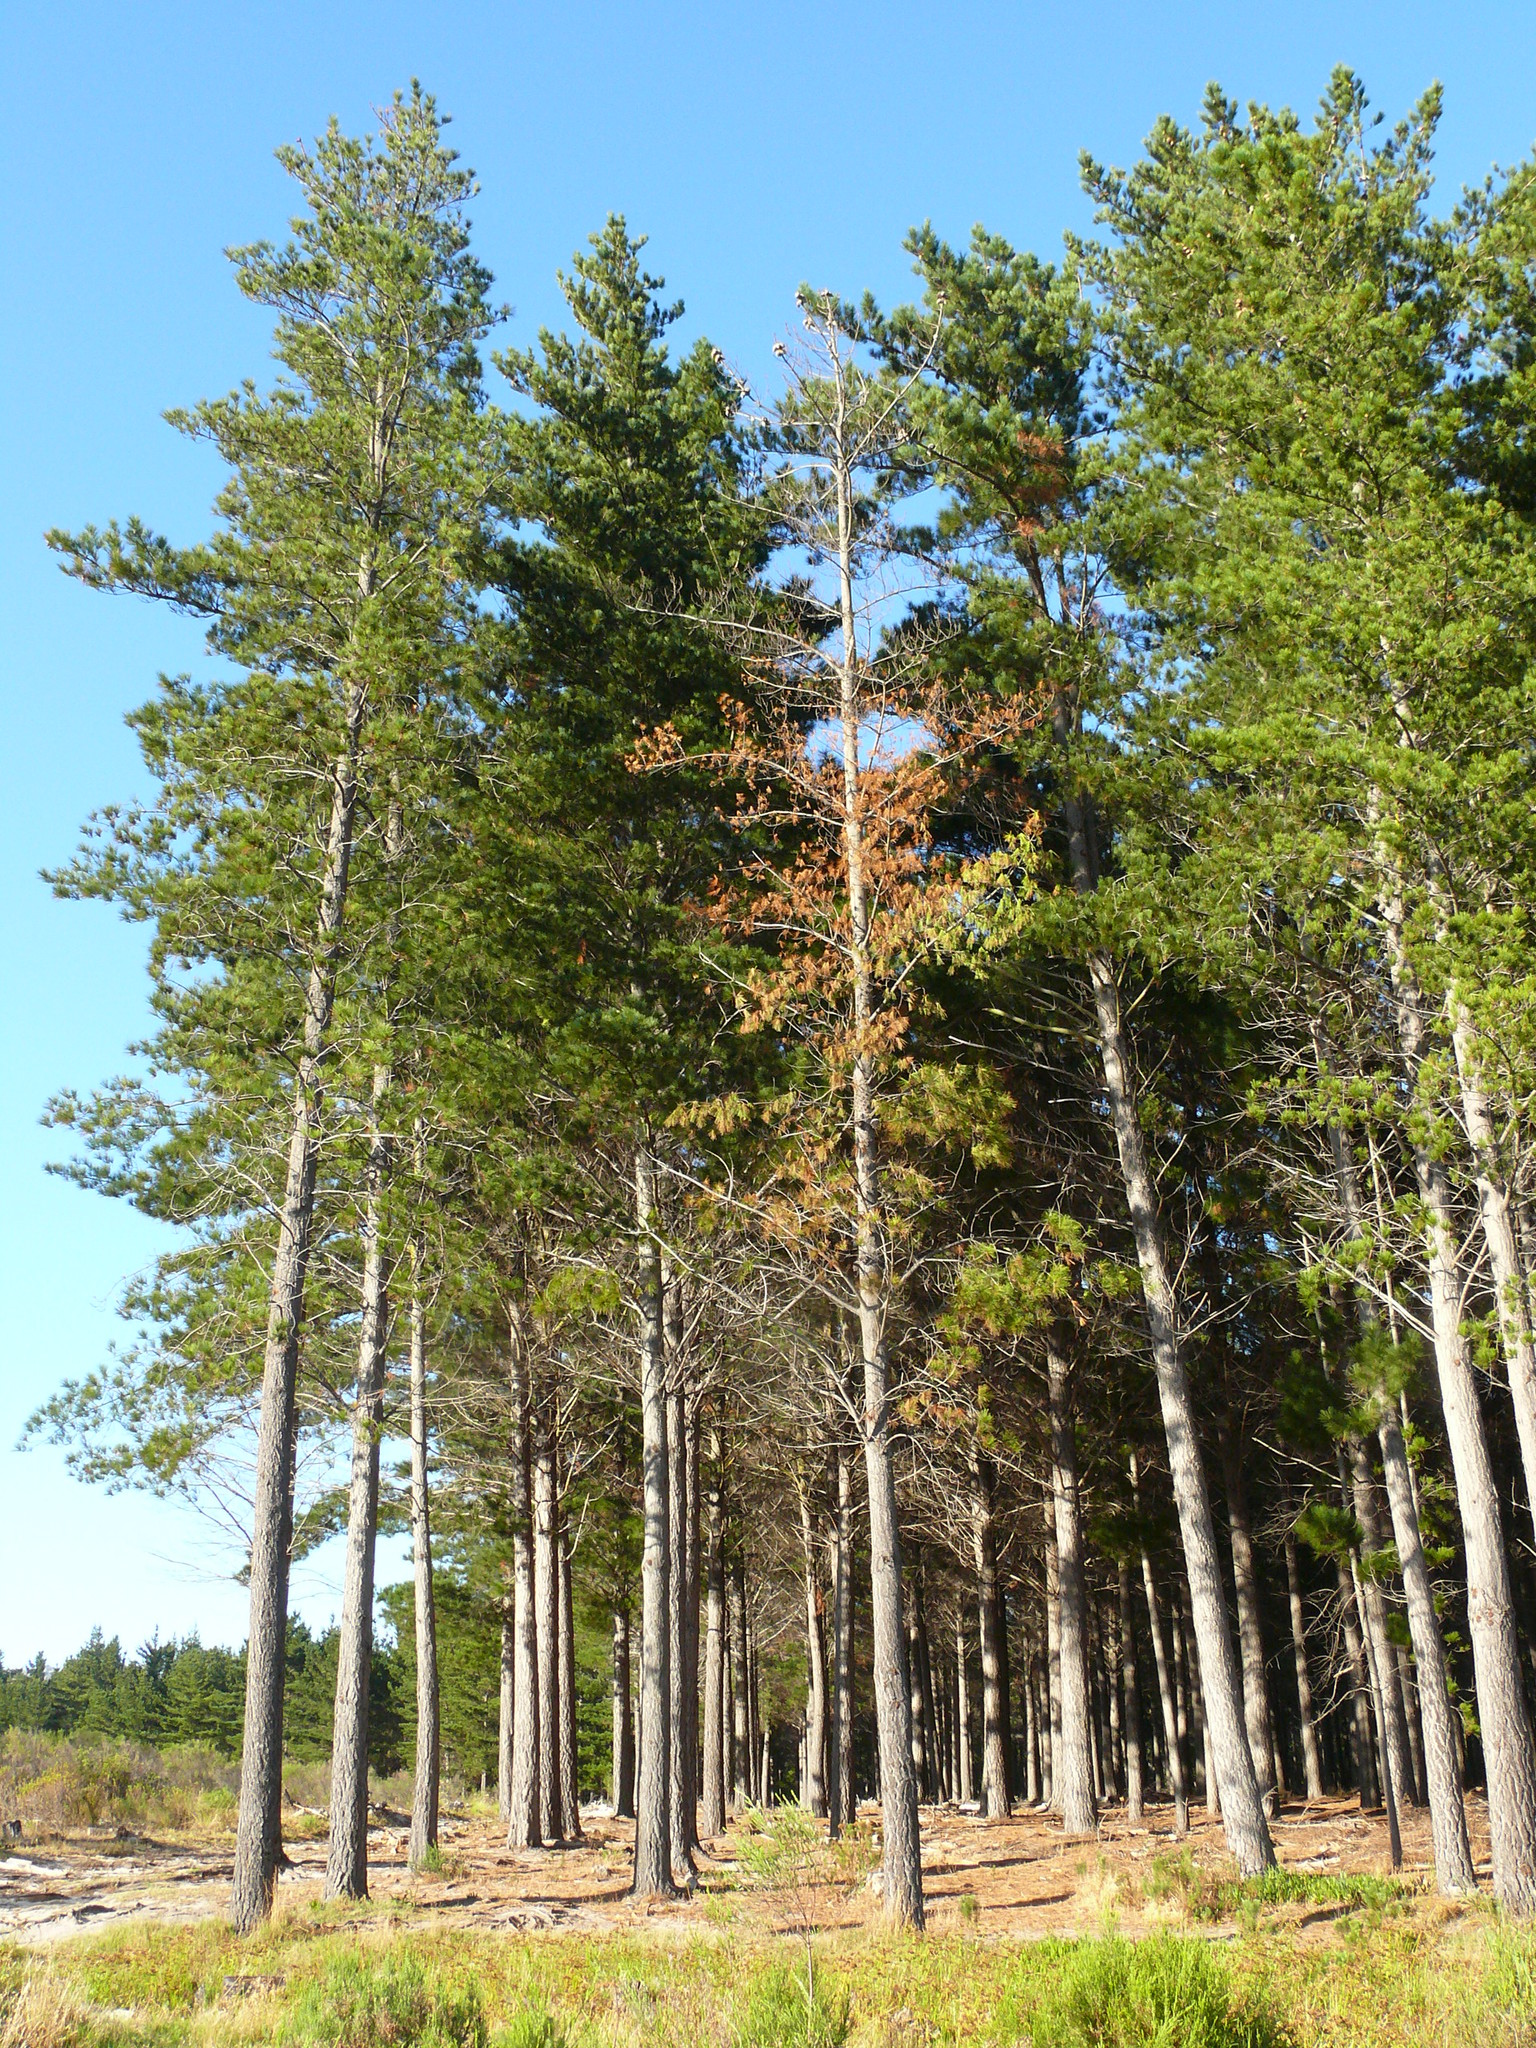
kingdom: Plantae
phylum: Tracheophyta
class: Pinopsida
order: Pinales
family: Pinaceae
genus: Pinus
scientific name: Pinus radiata
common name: Monterey pine
